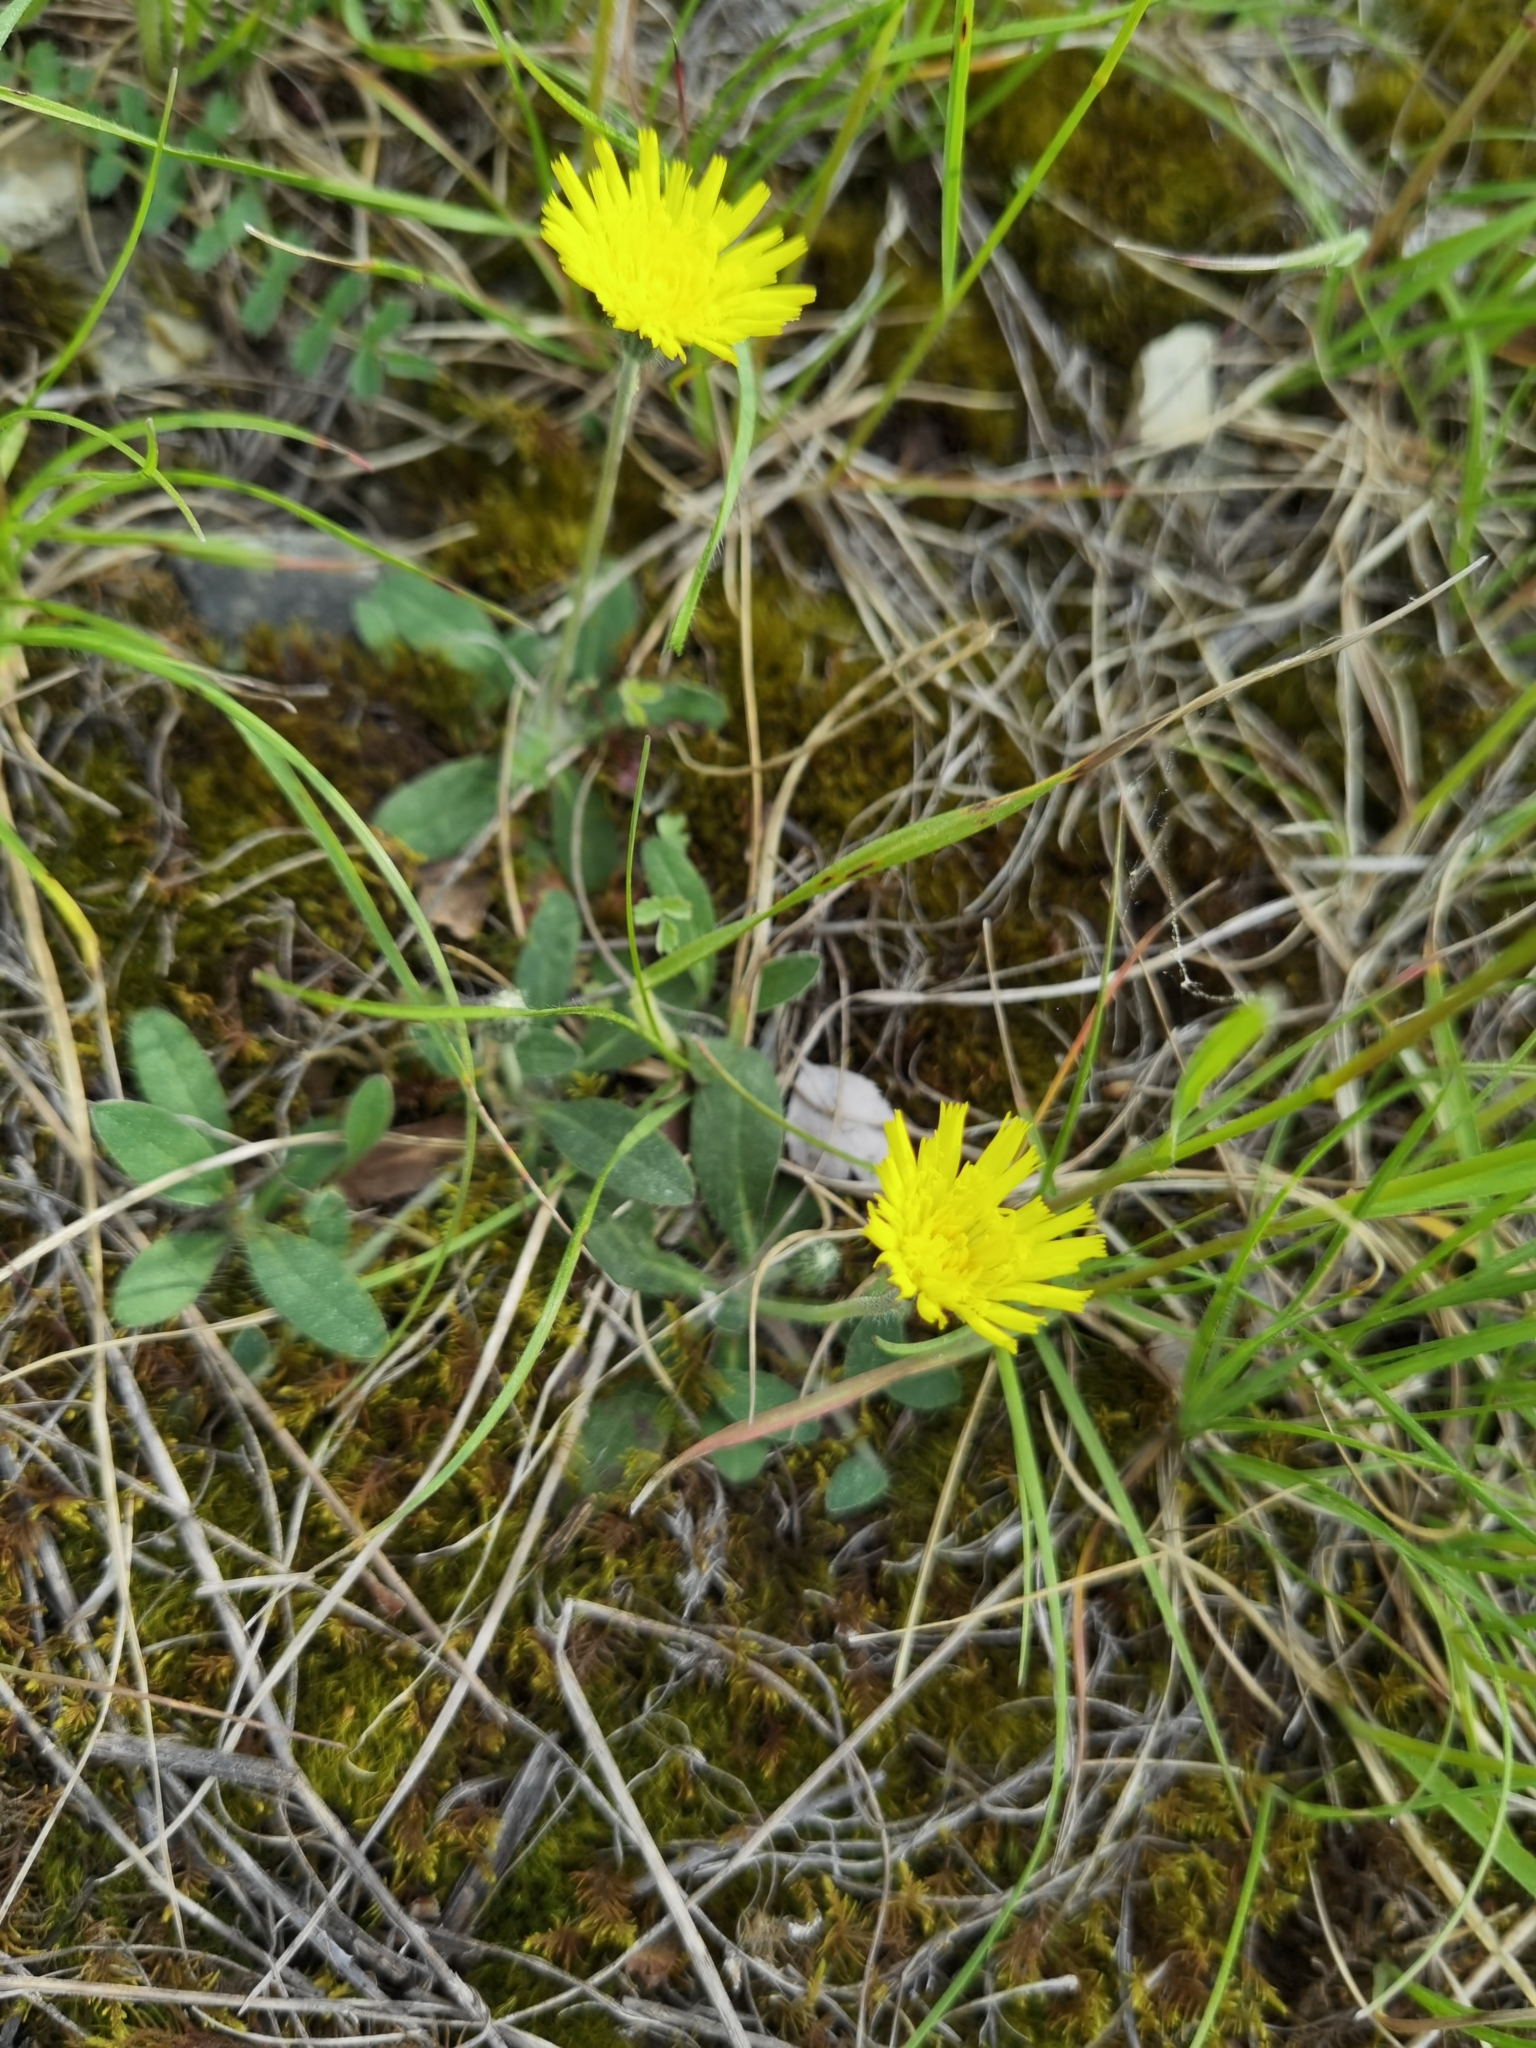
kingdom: Plantae
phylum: Tracheophyta
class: Magnoliopsida
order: Asterales
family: Asteraceae
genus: Pilosella
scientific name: Pilosella officinarum
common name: Mouse-ear hawkweed
